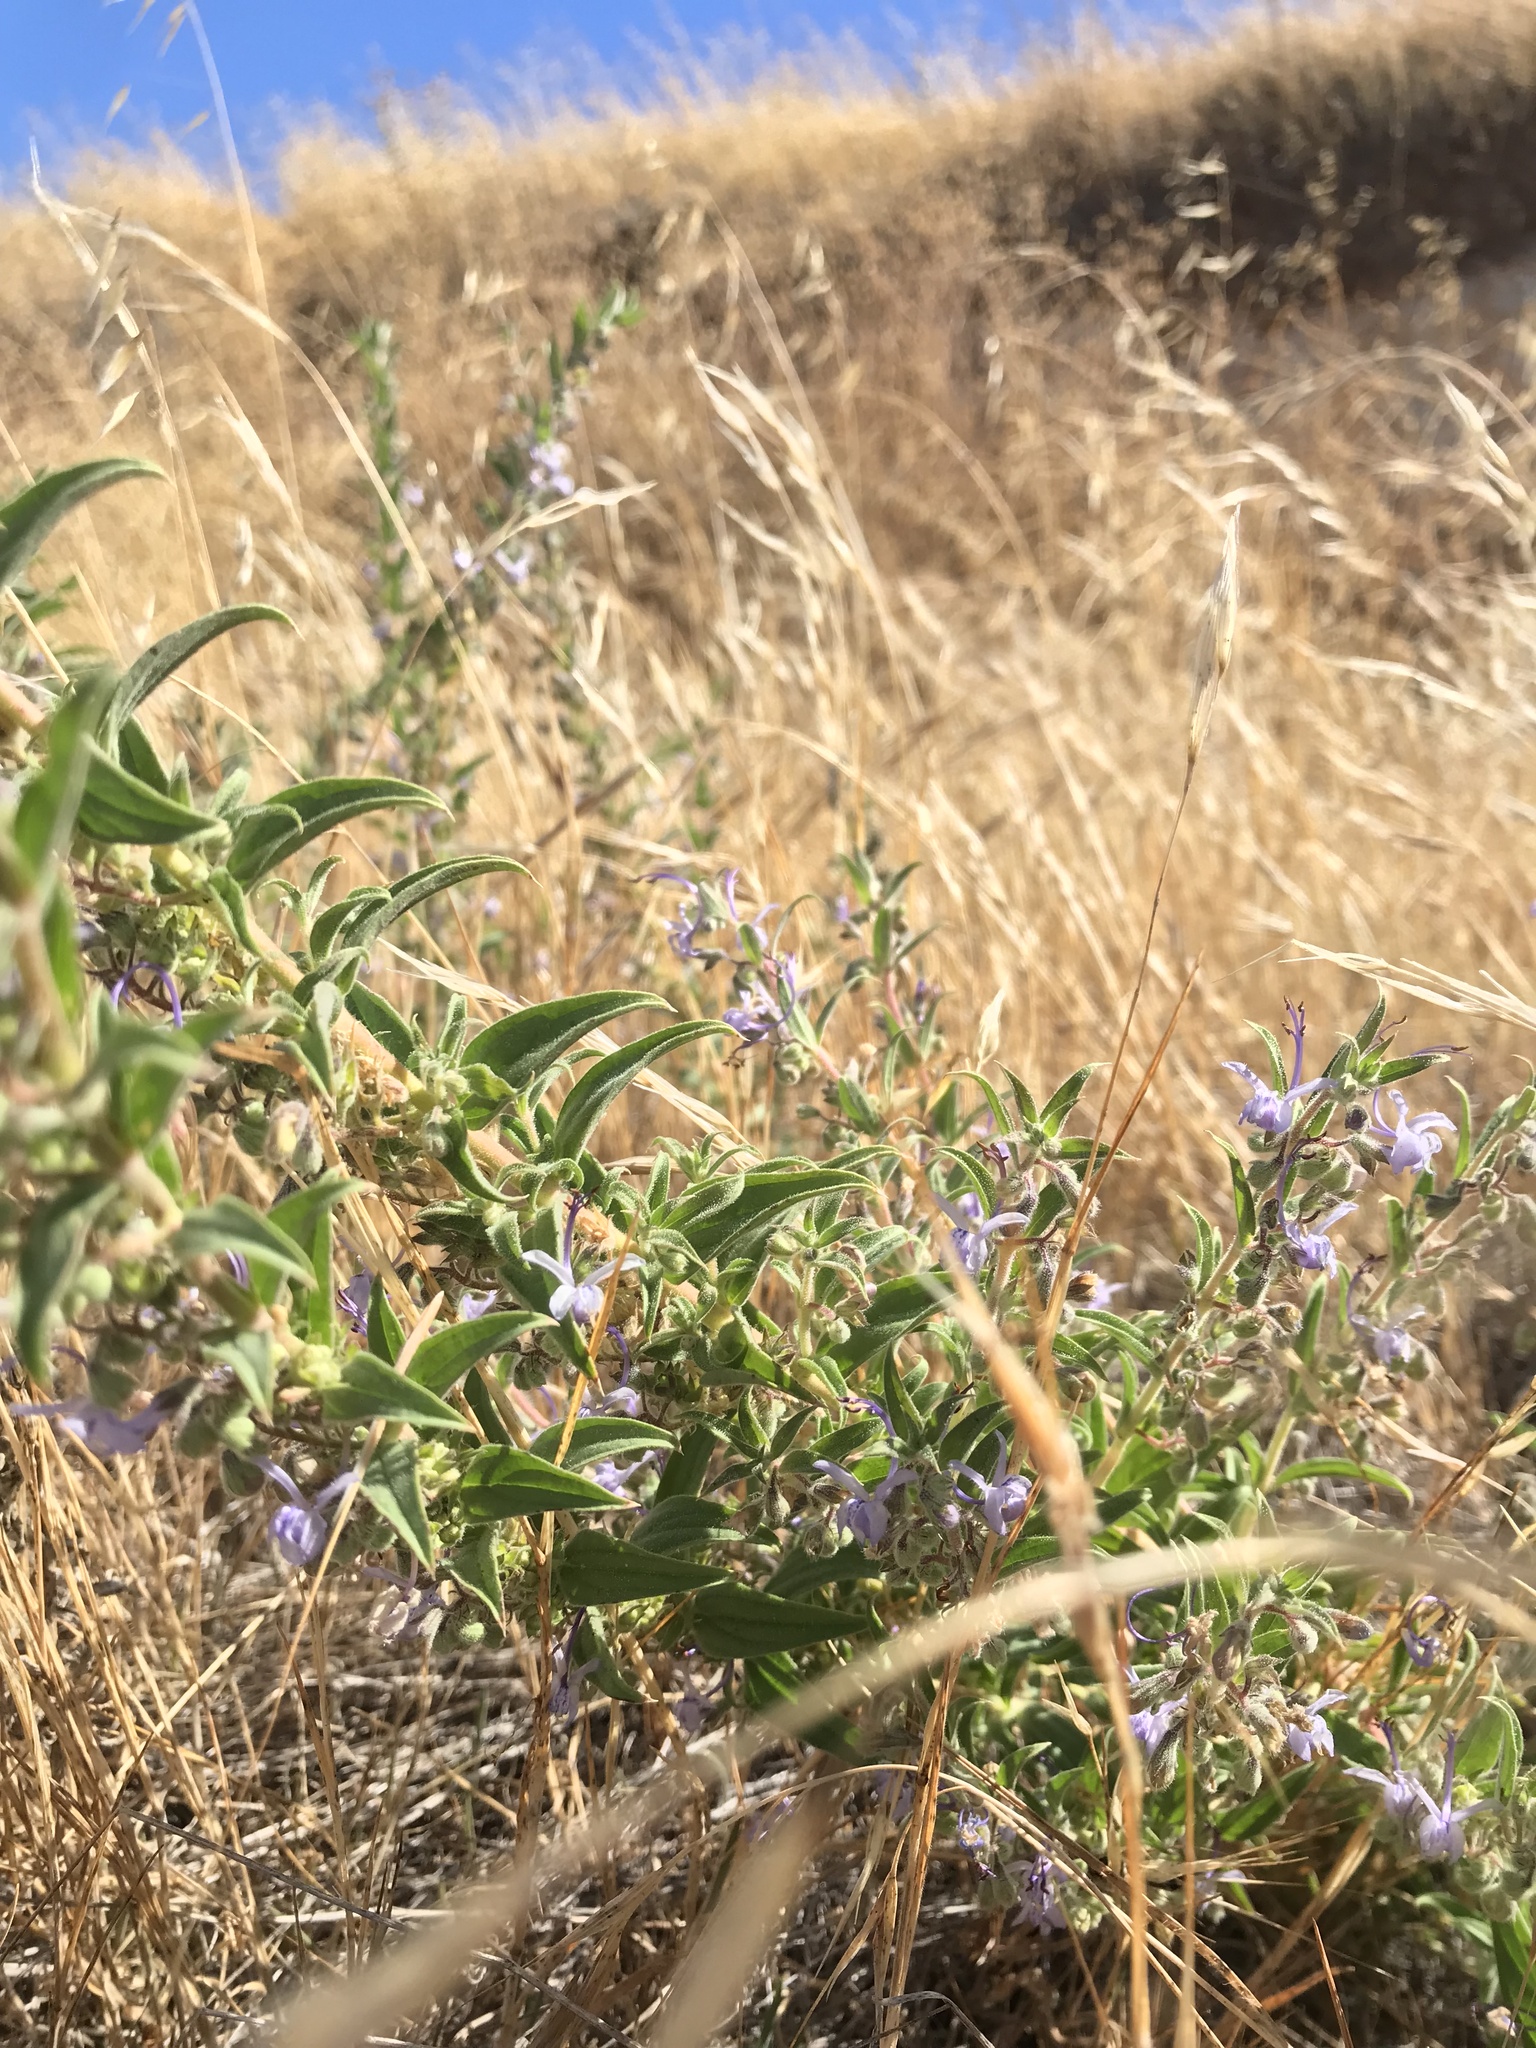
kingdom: Plantae
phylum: Tracheophyta
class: Magnoliopsida
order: Lamiales
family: Lamiaceae
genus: Trichostema
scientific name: Trichostema lanceolatum
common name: Vinegar-weed
